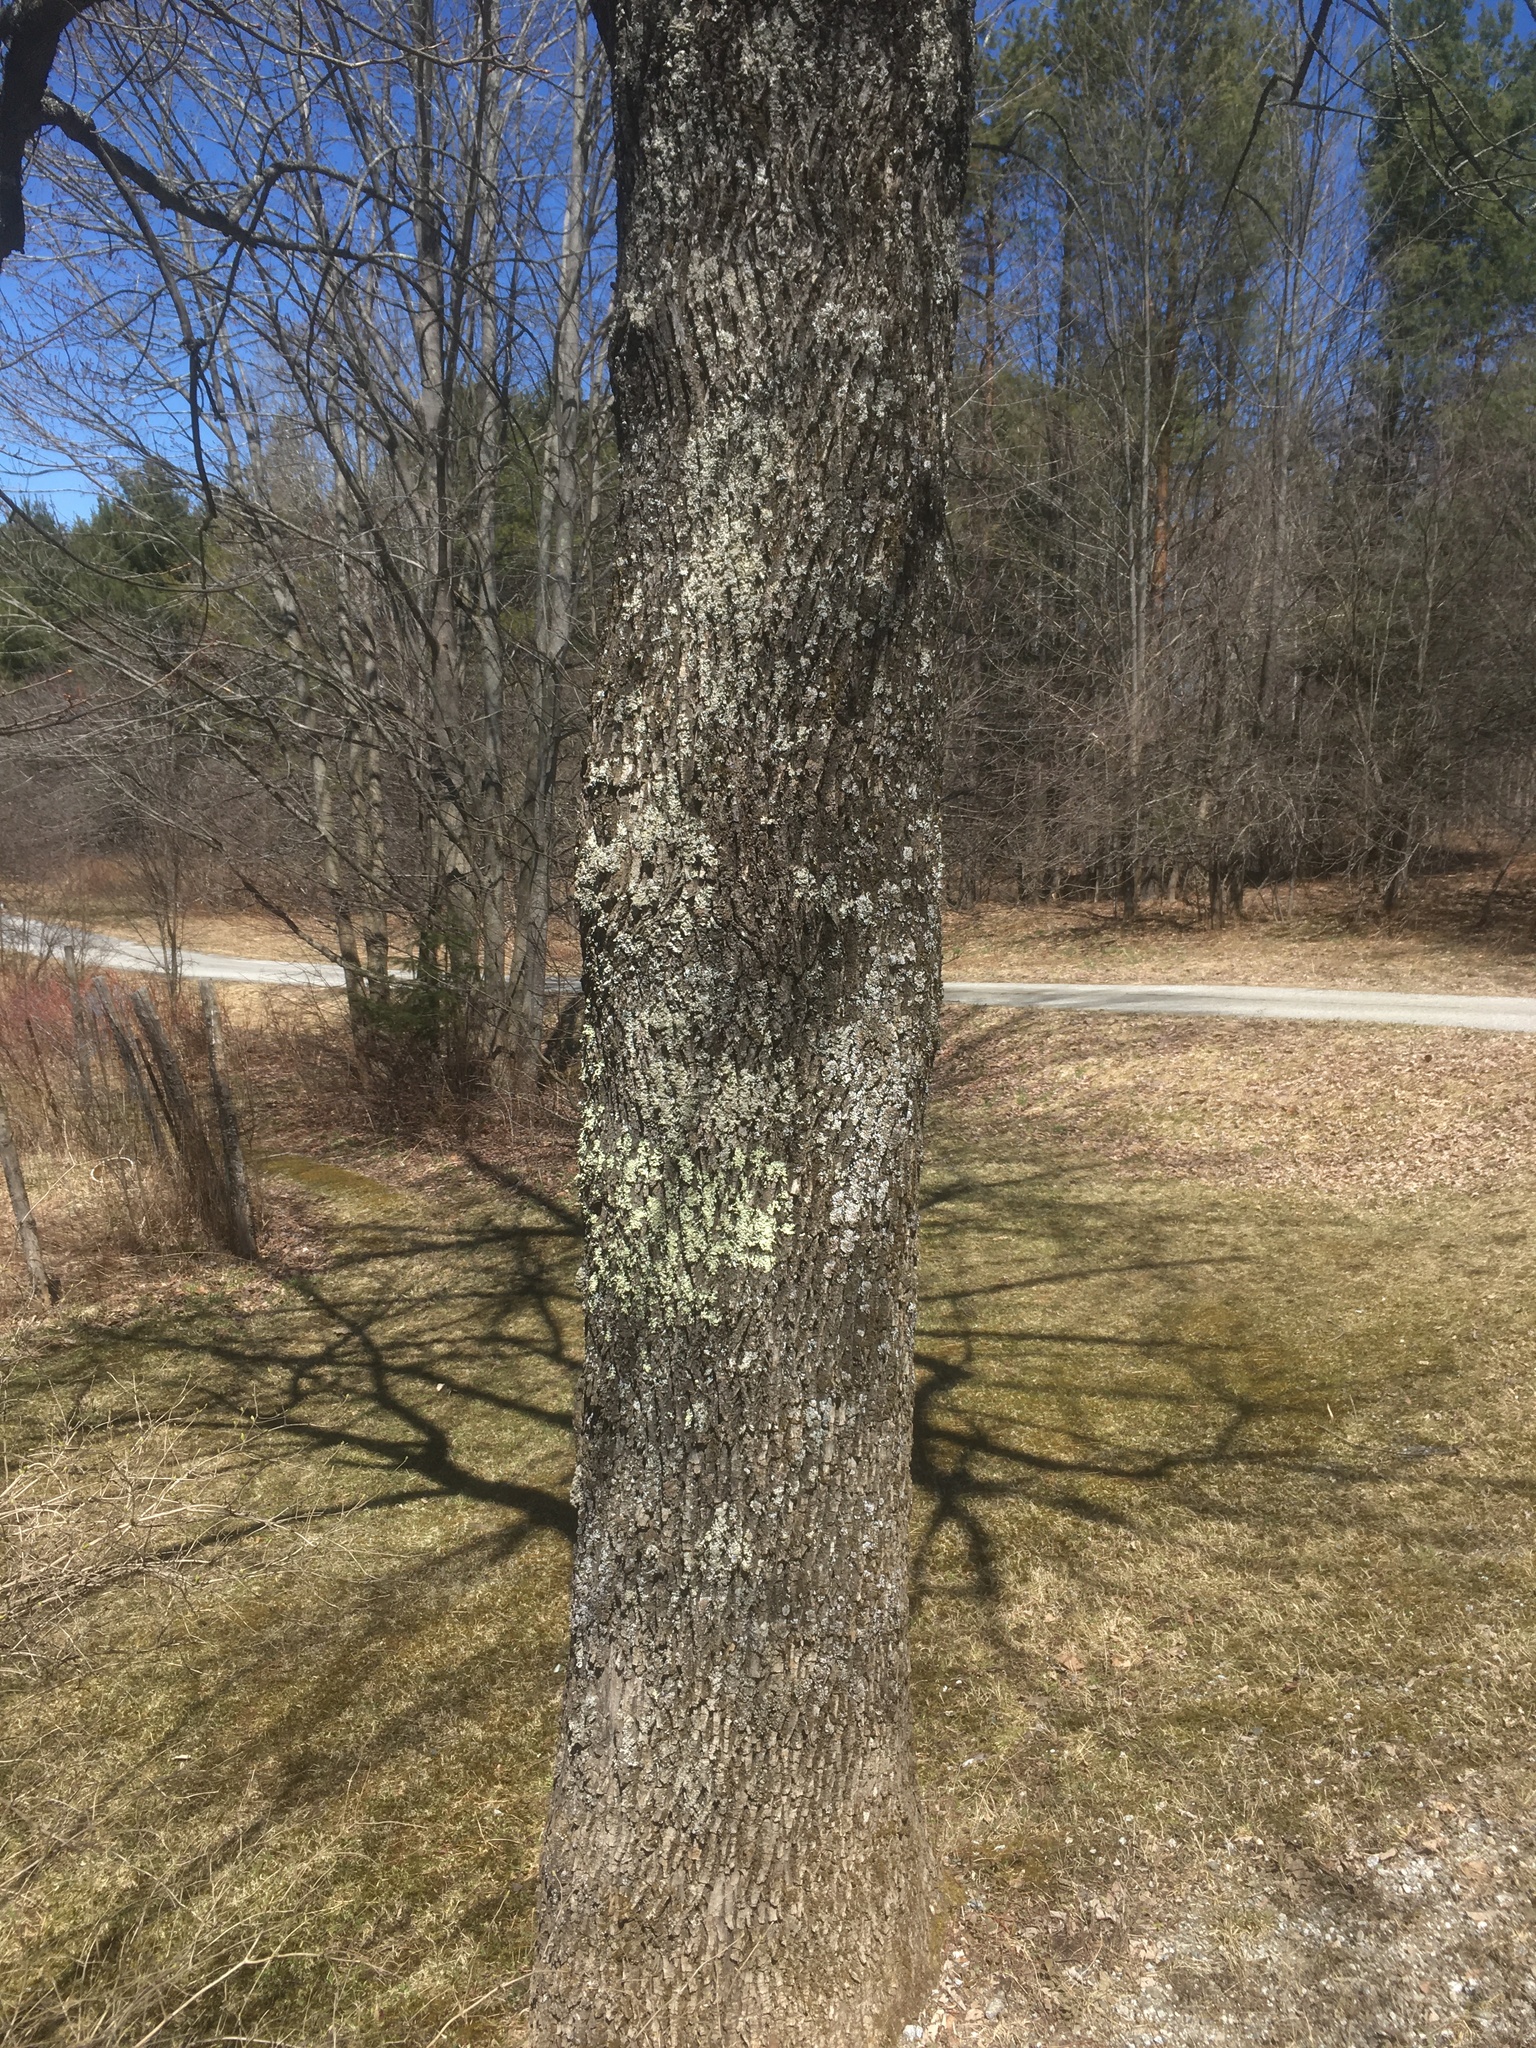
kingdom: Plantae
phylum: Tracheophyta
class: Magnoliopsida
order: Lamiales
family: Oleaceae
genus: Fraxinus
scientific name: Fraxinus americana
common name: White ash
